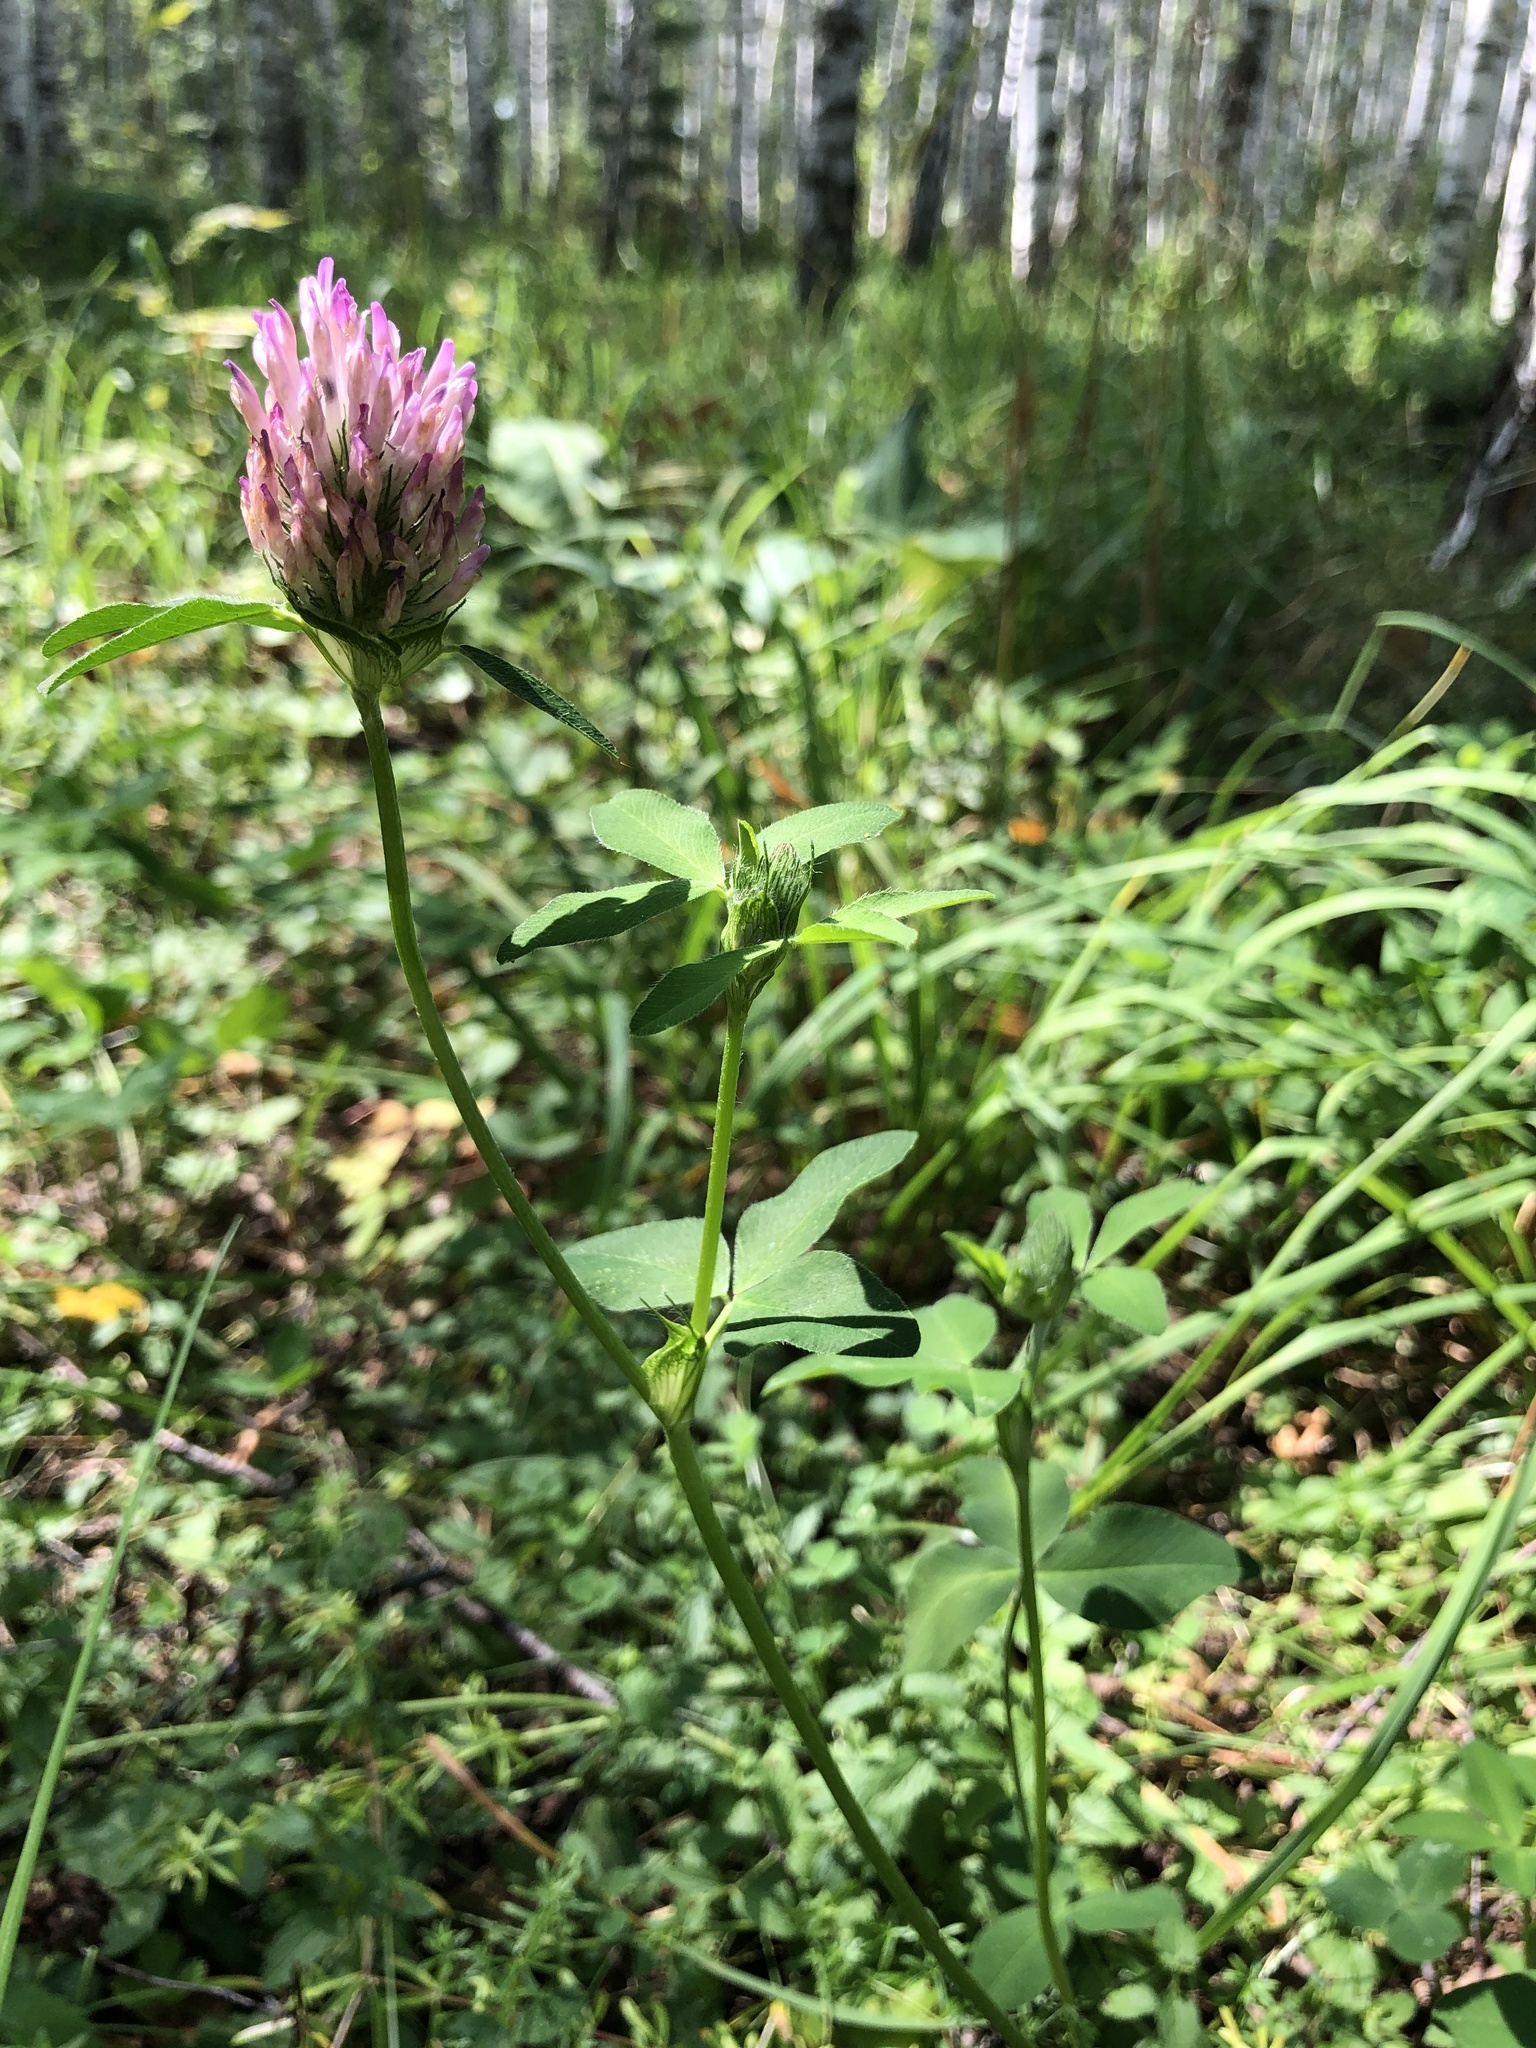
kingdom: Plantae
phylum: Tracheophyta
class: Magnoliopsida
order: Fabales
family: Fabaceae
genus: Trifolium
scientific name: Trifolium pratense
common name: Red clover
